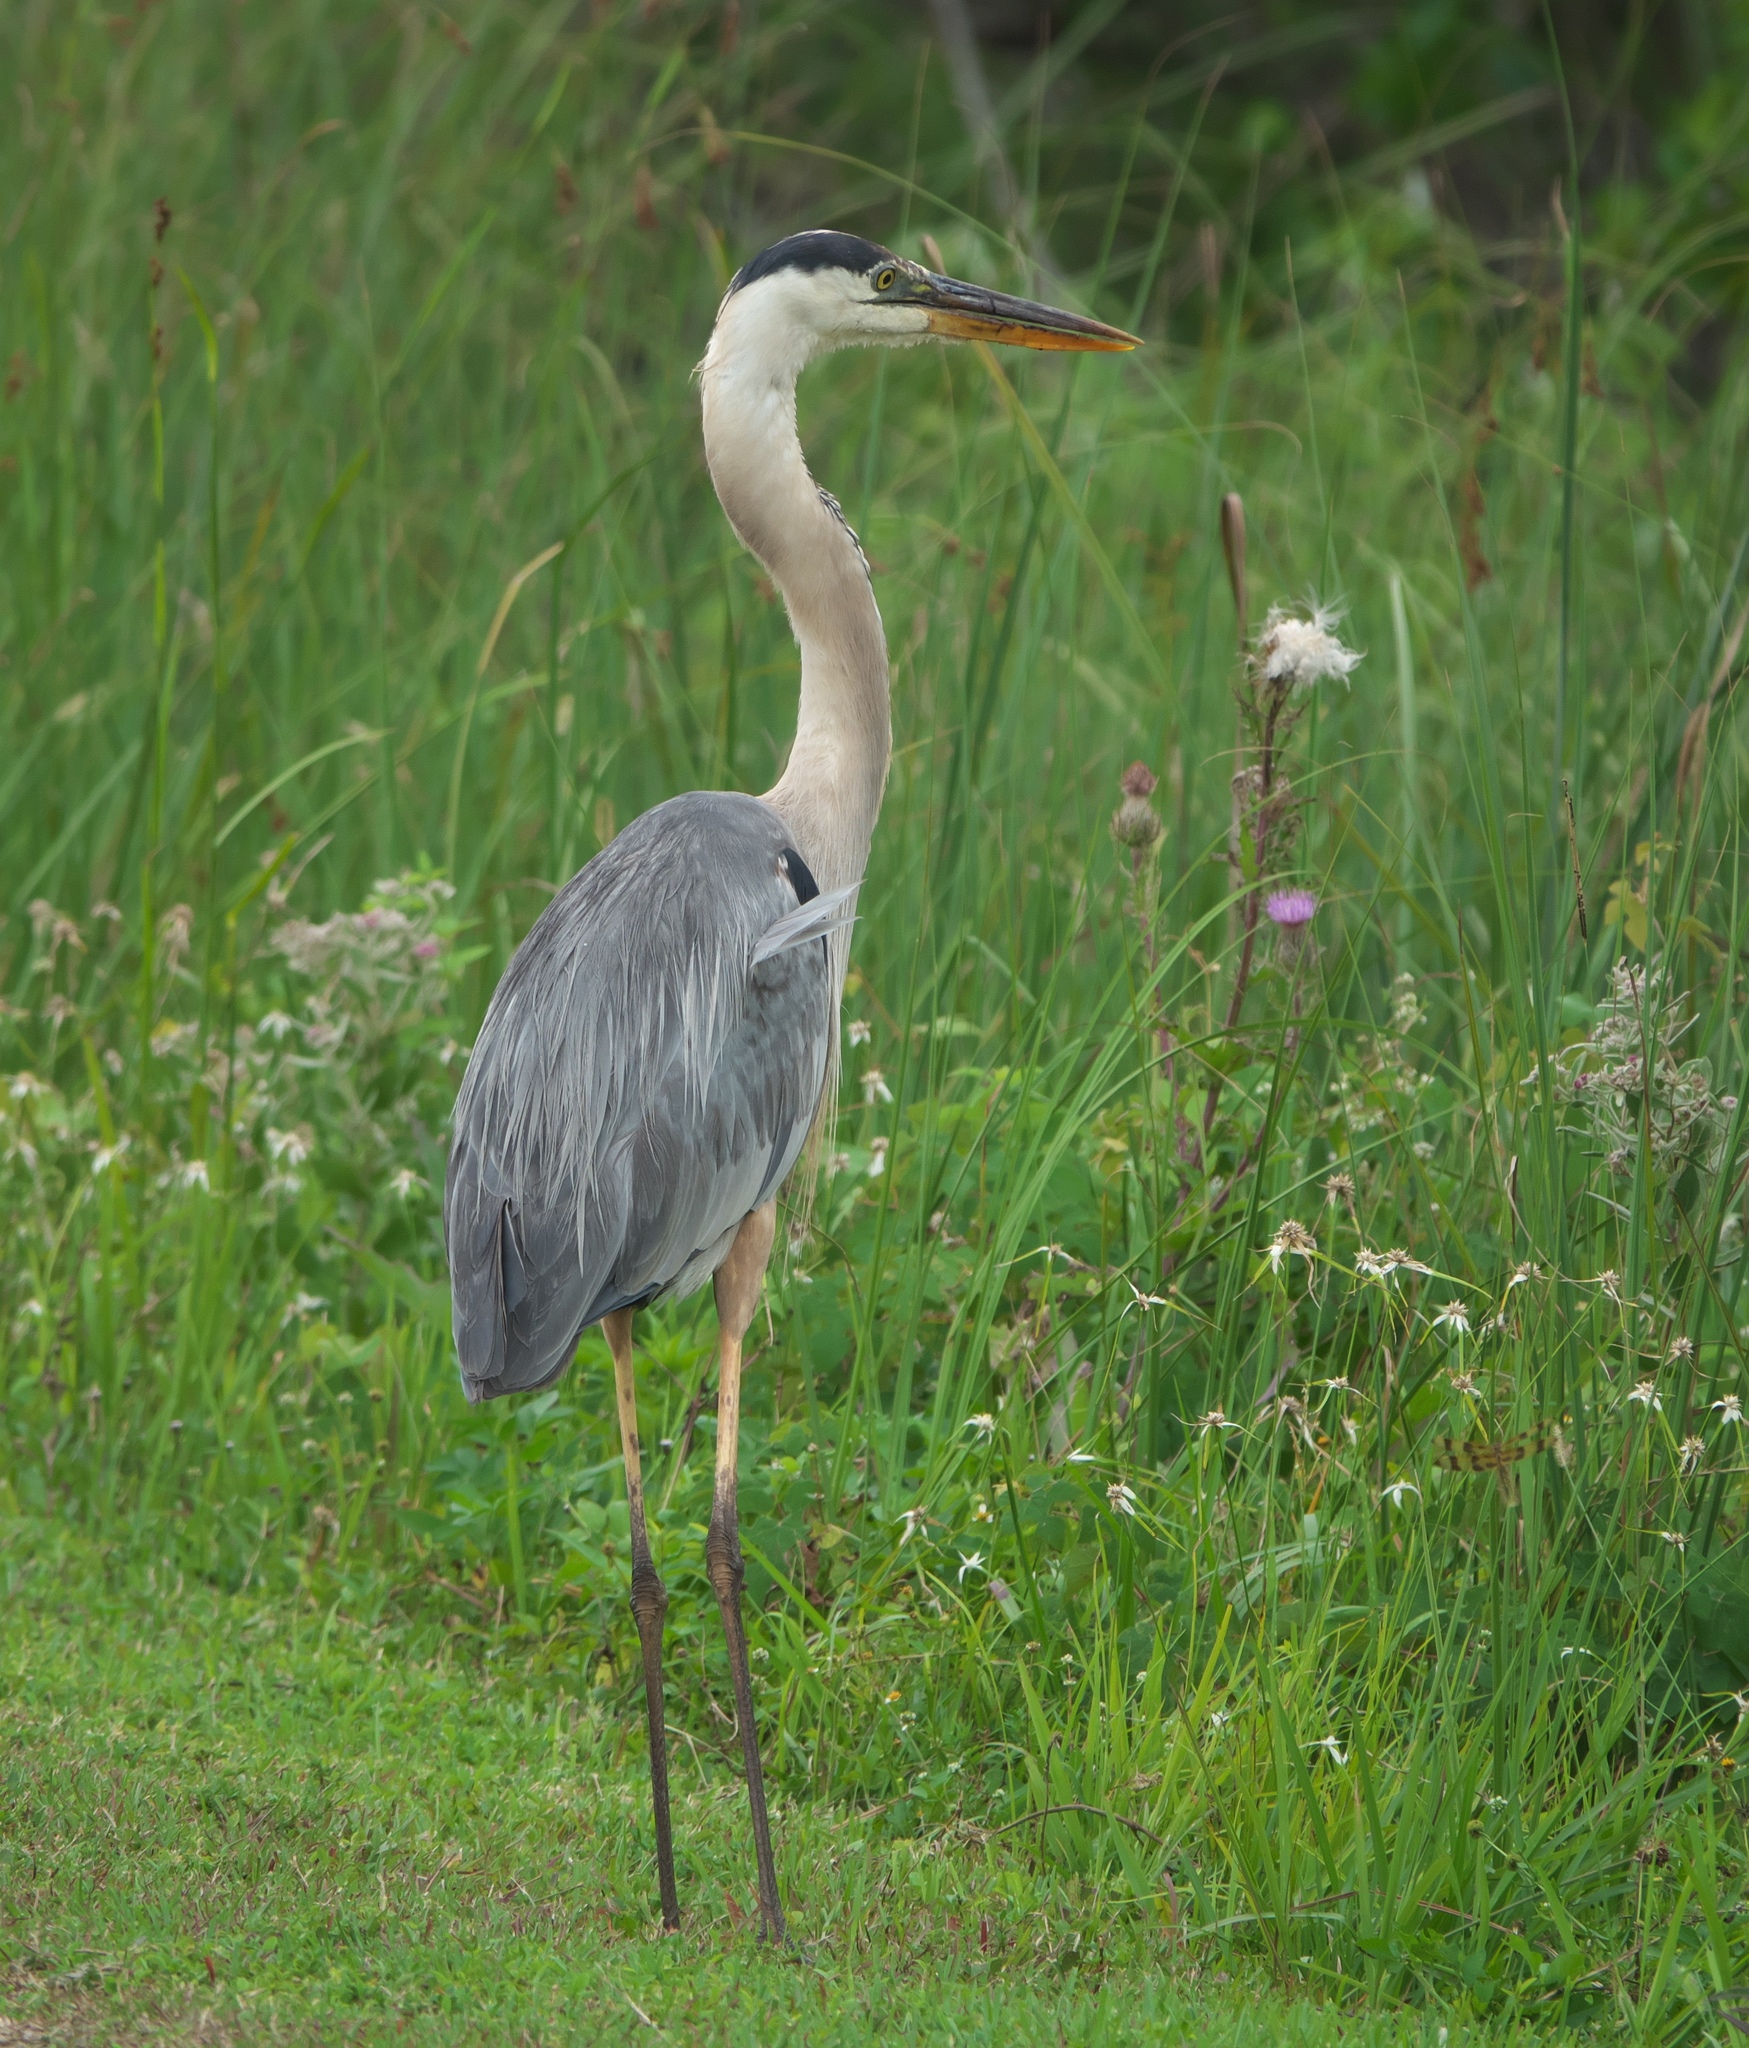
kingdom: Animalia
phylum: Chordata
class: Aves
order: Pelecaniformes
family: Ardeidae
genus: Ardea
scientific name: Ardea herodias
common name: Great blue heron
